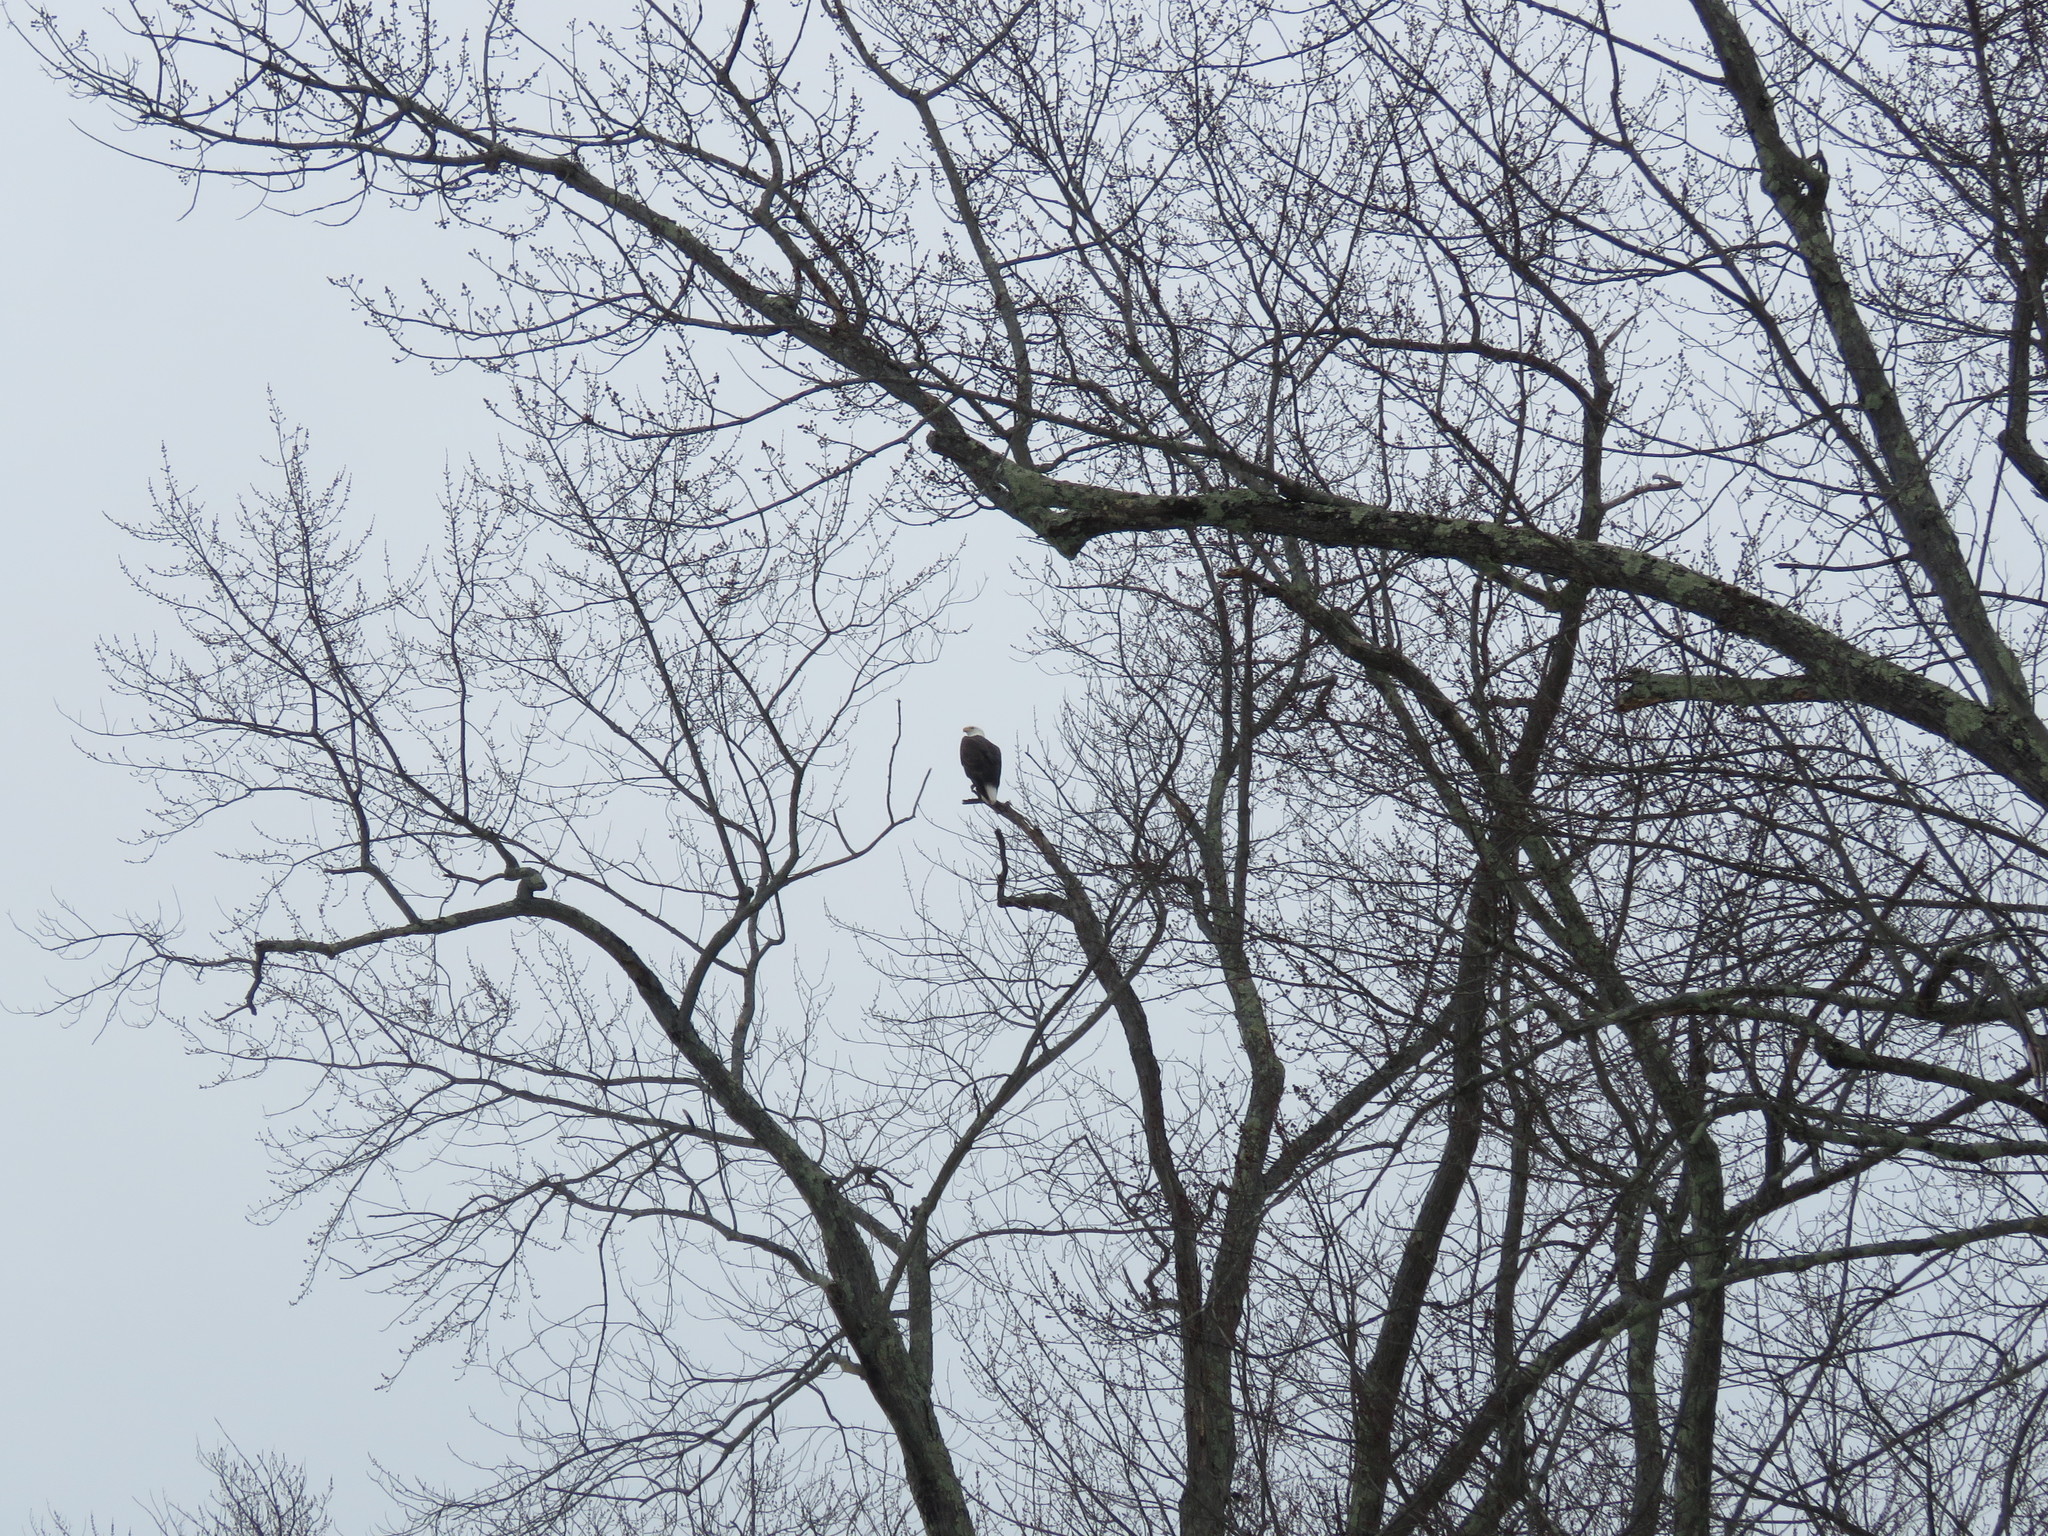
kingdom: Animalia
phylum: Chordata
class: Aves
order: Accipitriformes
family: Accipitridae
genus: Haliaeetus
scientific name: Haliaeetus leucocephalus
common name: Bald eagle
